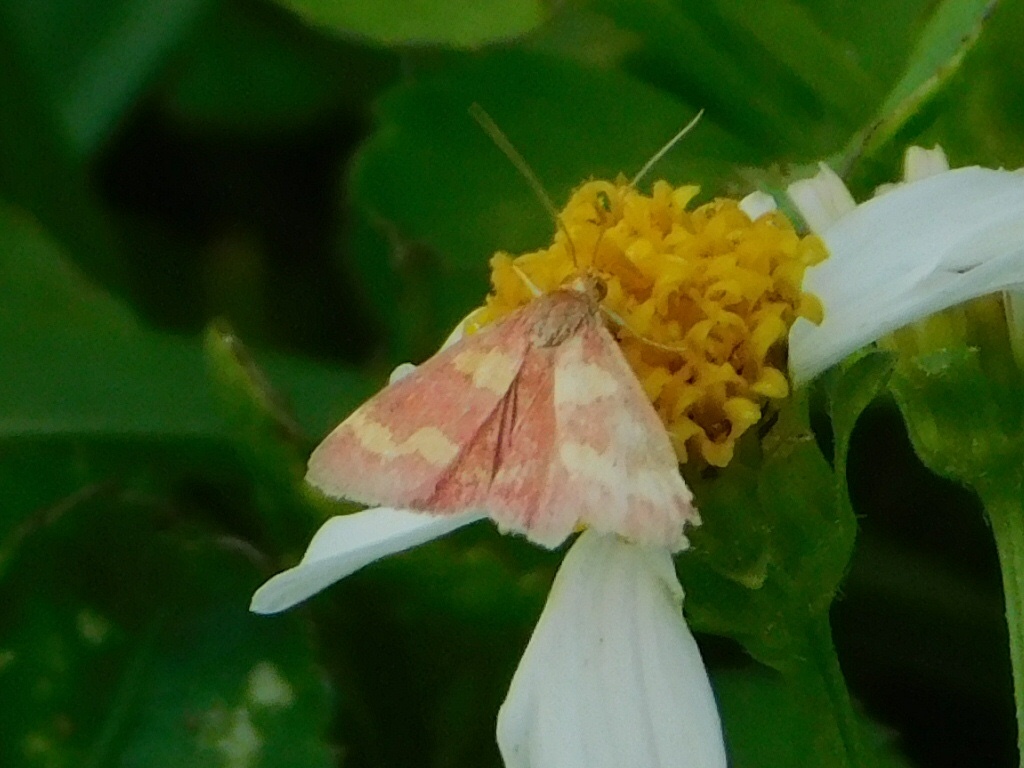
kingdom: Animalia
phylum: Arthropoda
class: Insecta
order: Lepidoptera
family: Crambidae
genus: Pyrausta
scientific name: Pyrausta tyralis
